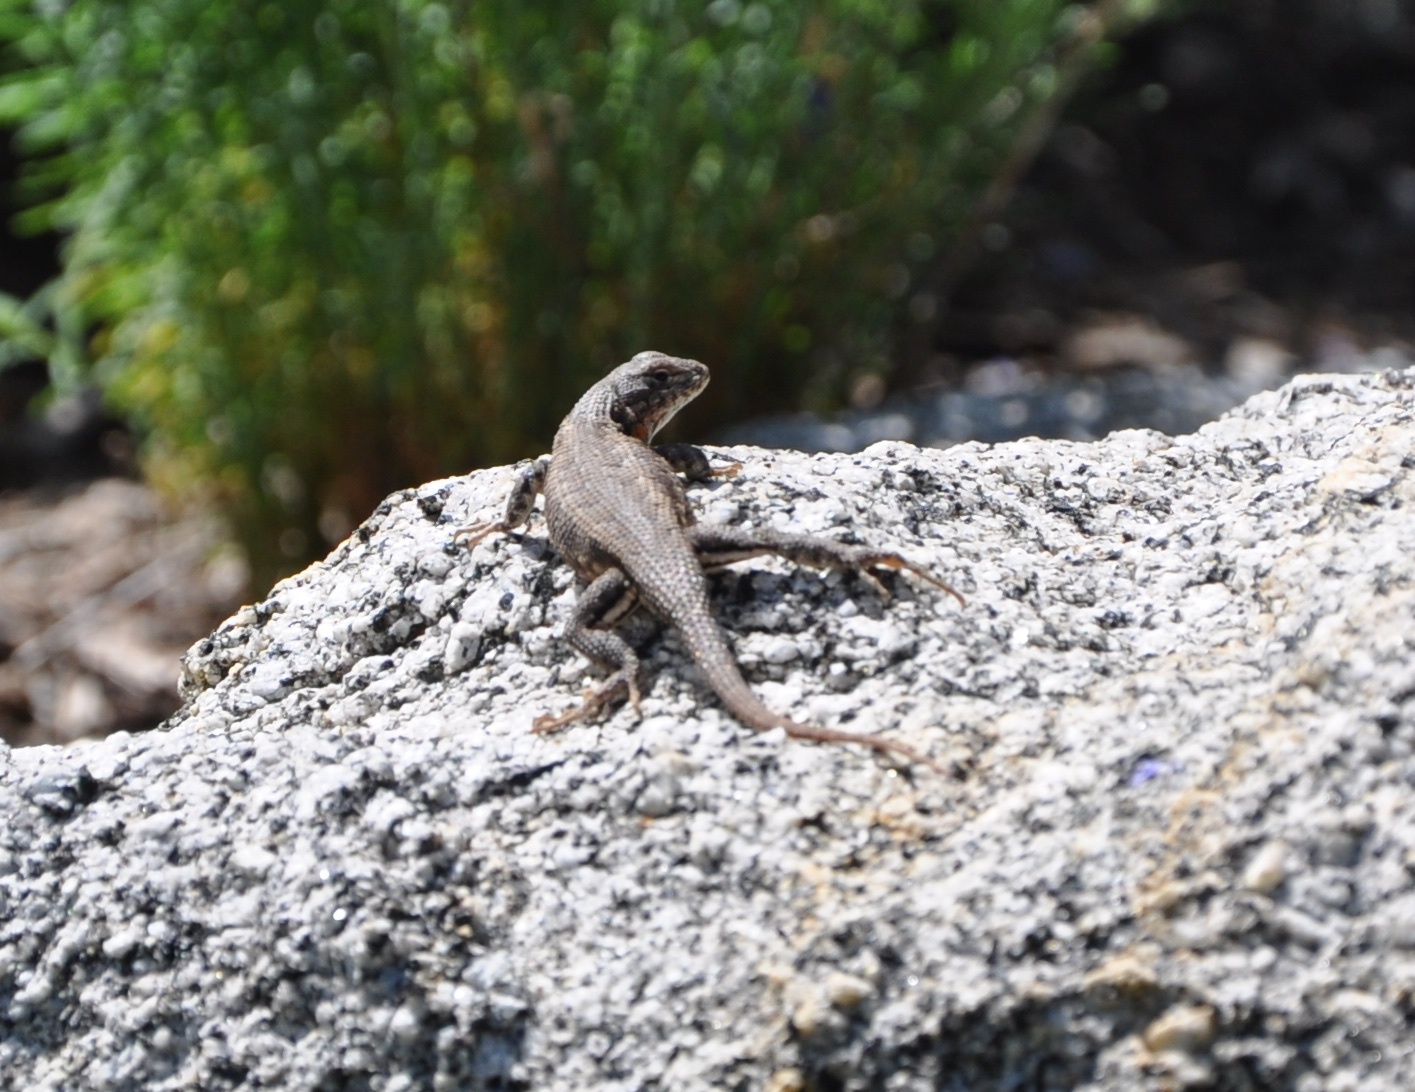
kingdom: Animalia
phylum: Chordata
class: Squamata
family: Phrynosomatidae
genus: Sceloporus
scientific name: Sceloporus graciosus
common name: Sagebrush lizard
